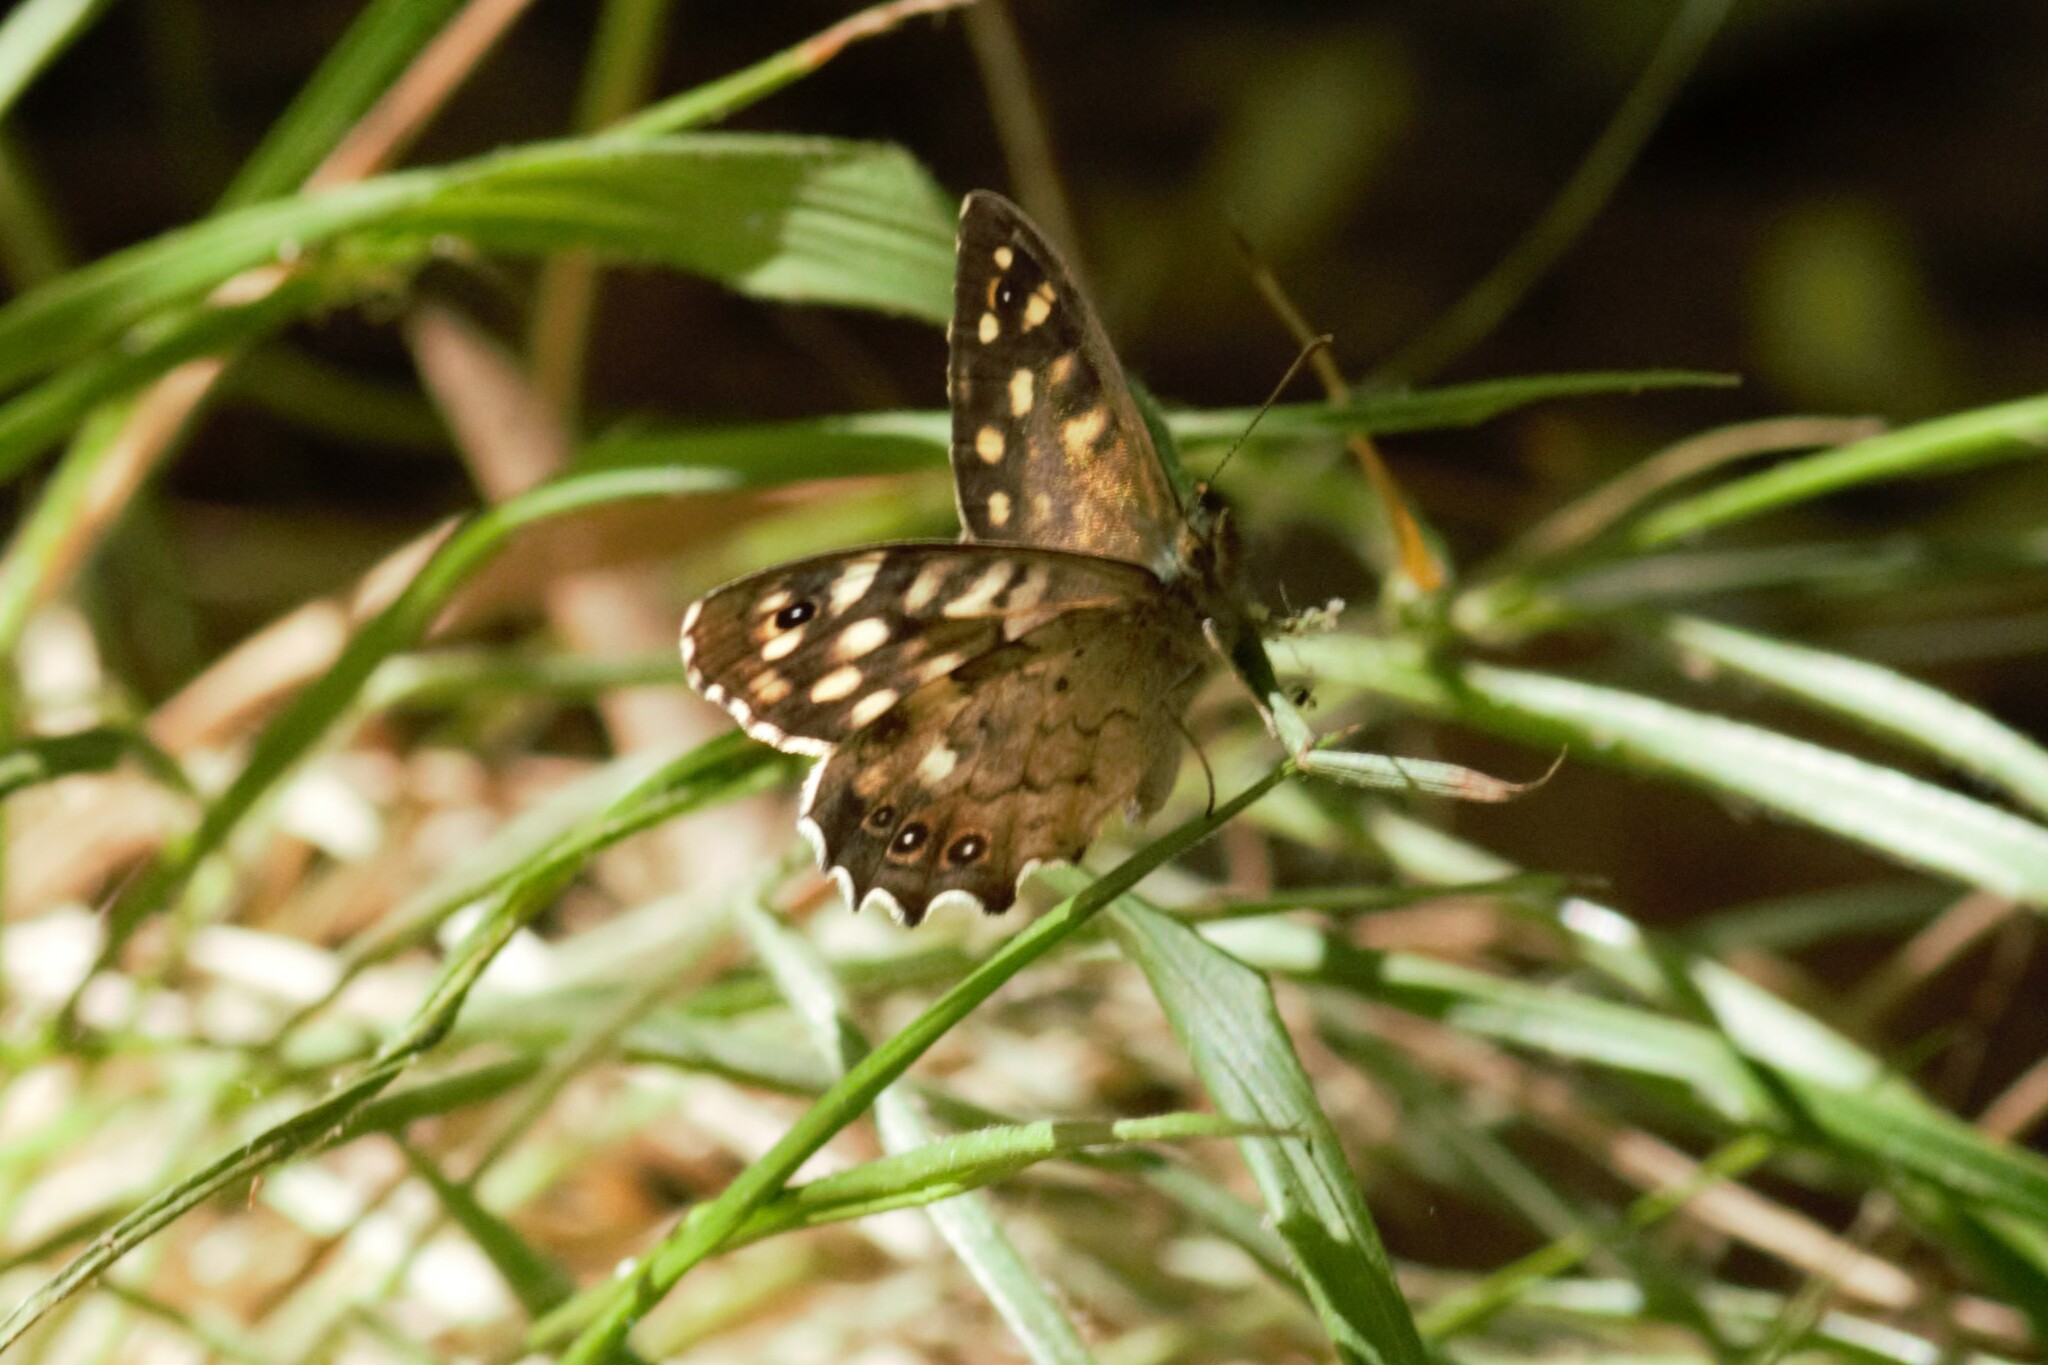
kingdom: Animalia
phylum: Arthropoda
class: Insecta
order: Lepidoptera
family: Nymphalidae
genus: Pararge
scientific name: Pararge aegeria
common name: Speckled wood
